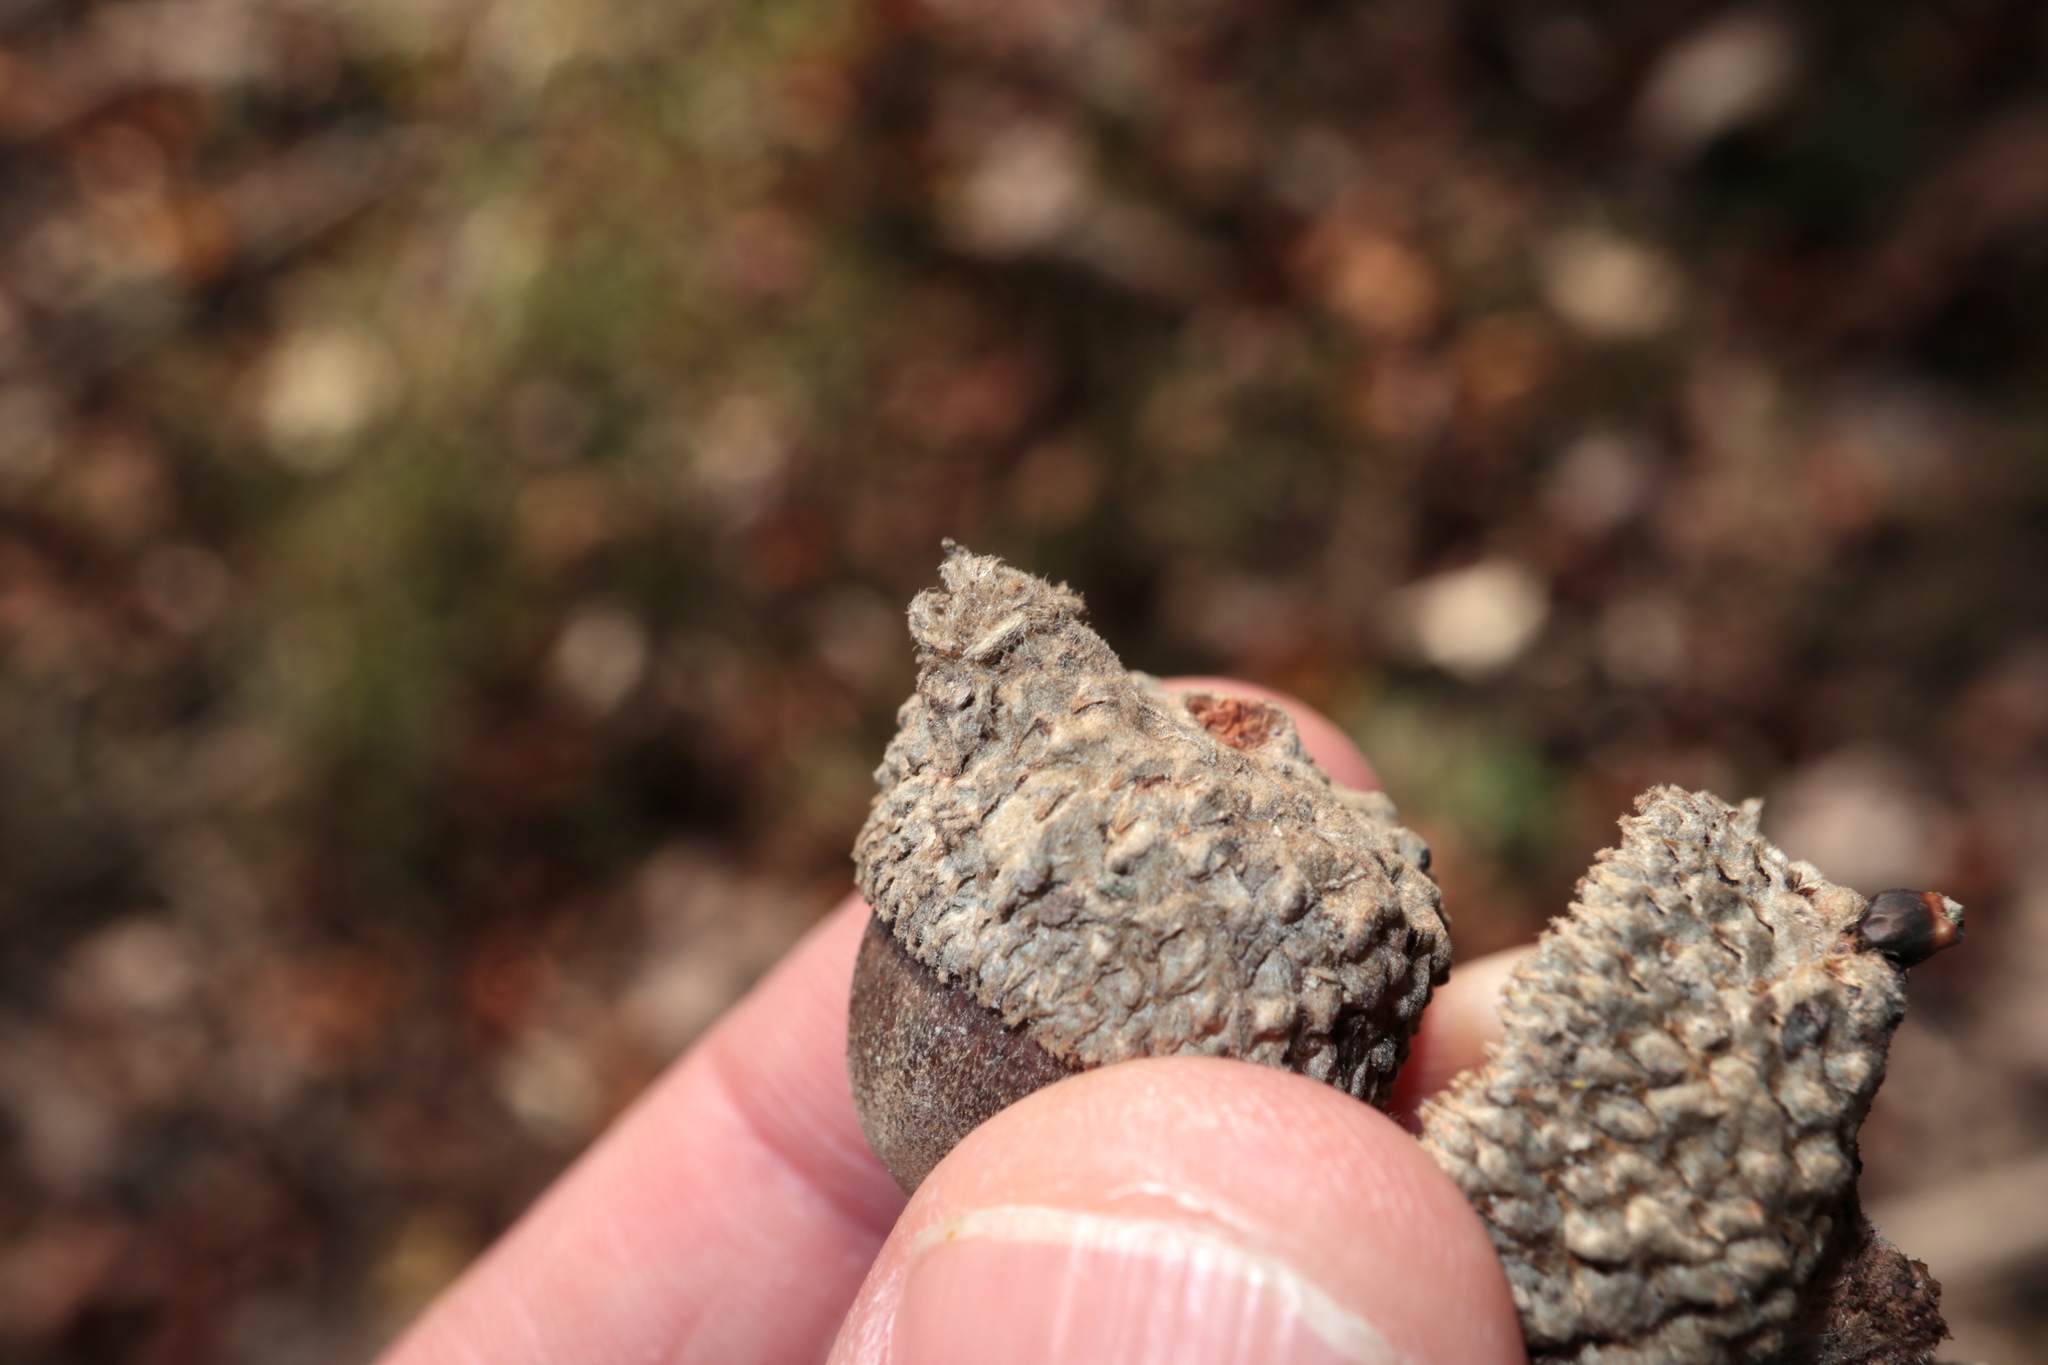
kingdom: Animalia
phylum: Arthropoda
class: Insecta
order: Hymenoptera
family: Cynipidae
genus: Andricus
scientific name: Andricus
